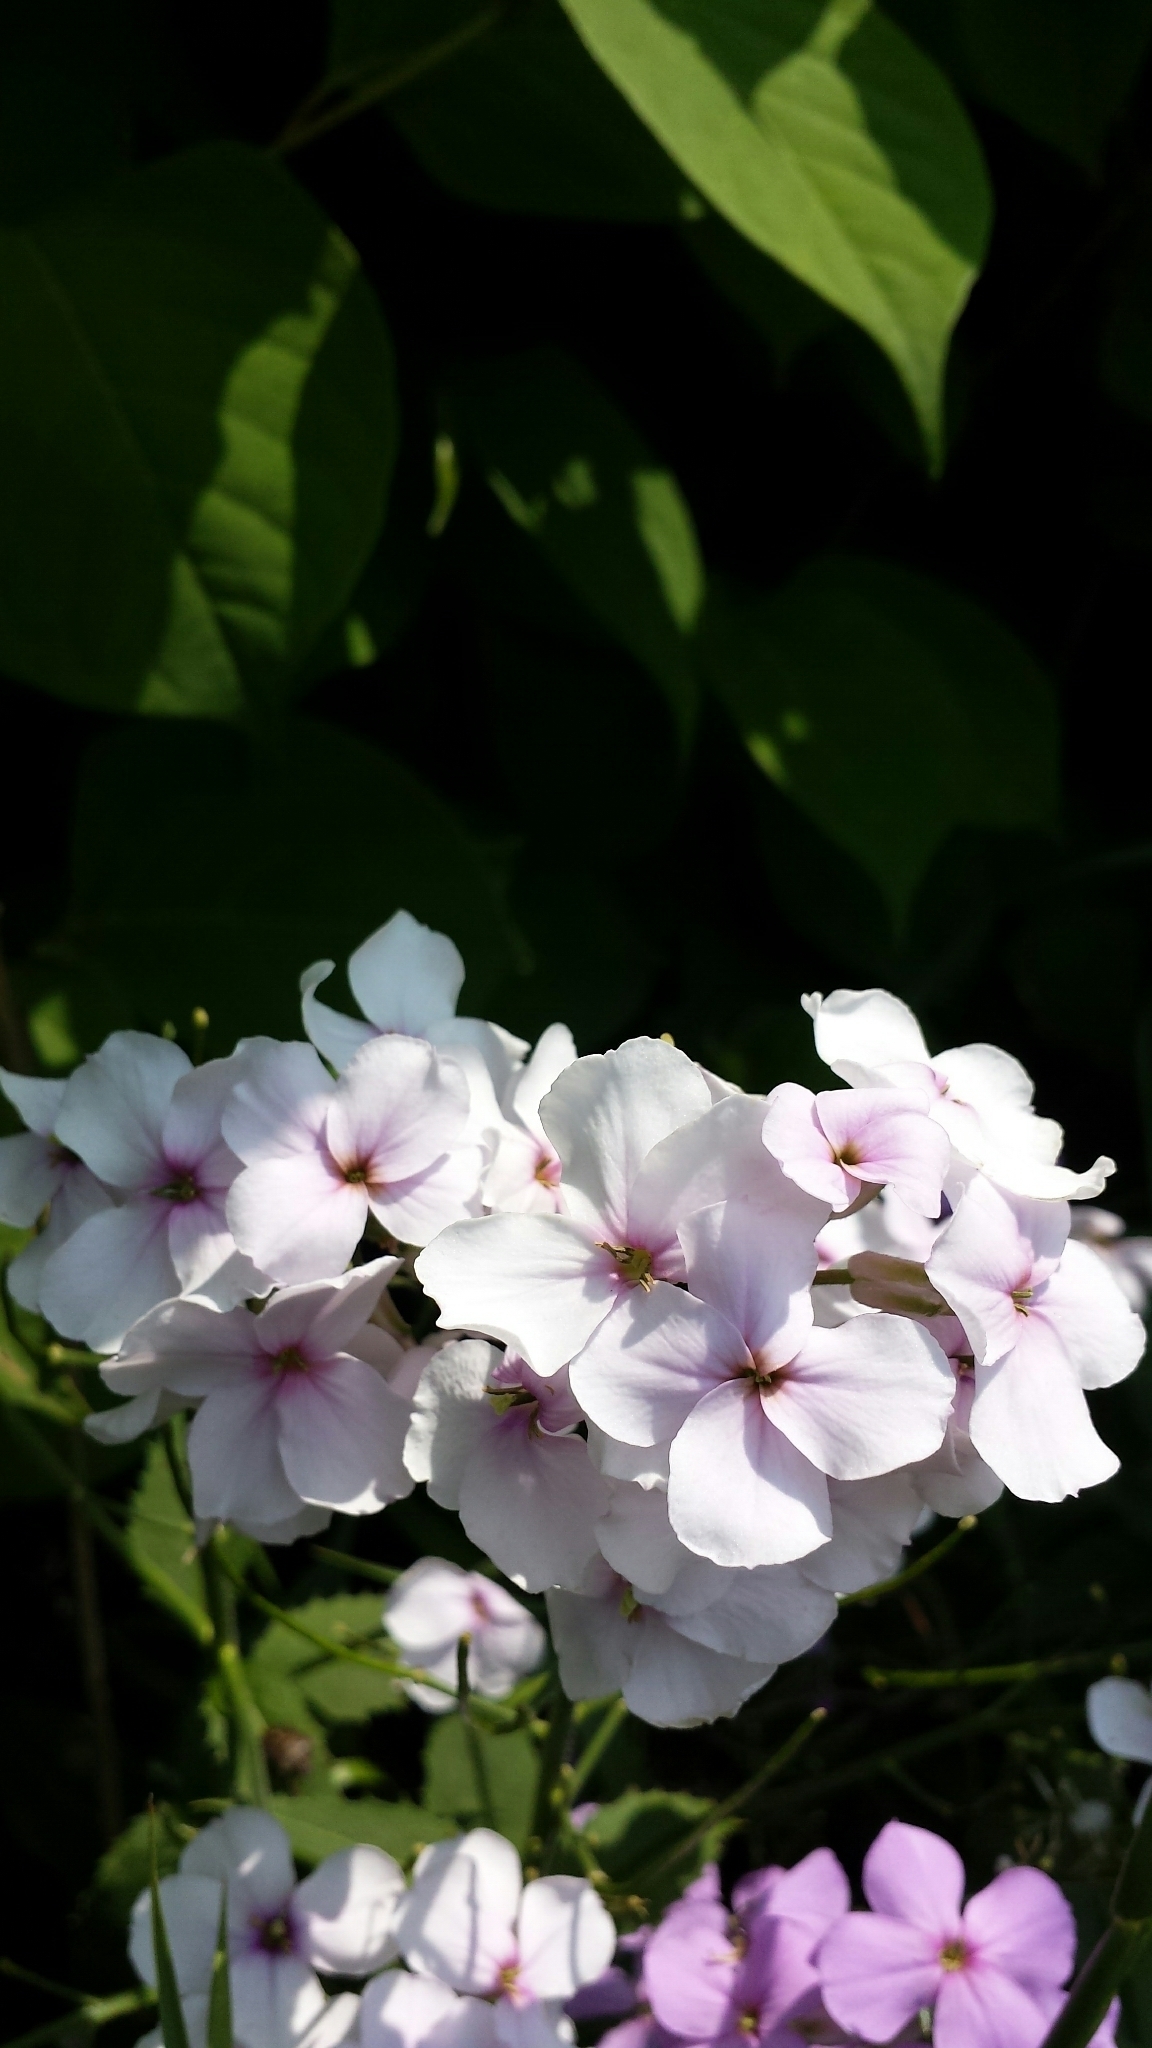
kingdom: Plantae
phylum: Tracheophyta
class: Magnoliopsida
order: Brassicales
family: Brassicaceae
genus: Hesperis
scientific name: Hesperis matronalis
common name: Dame's-violet
